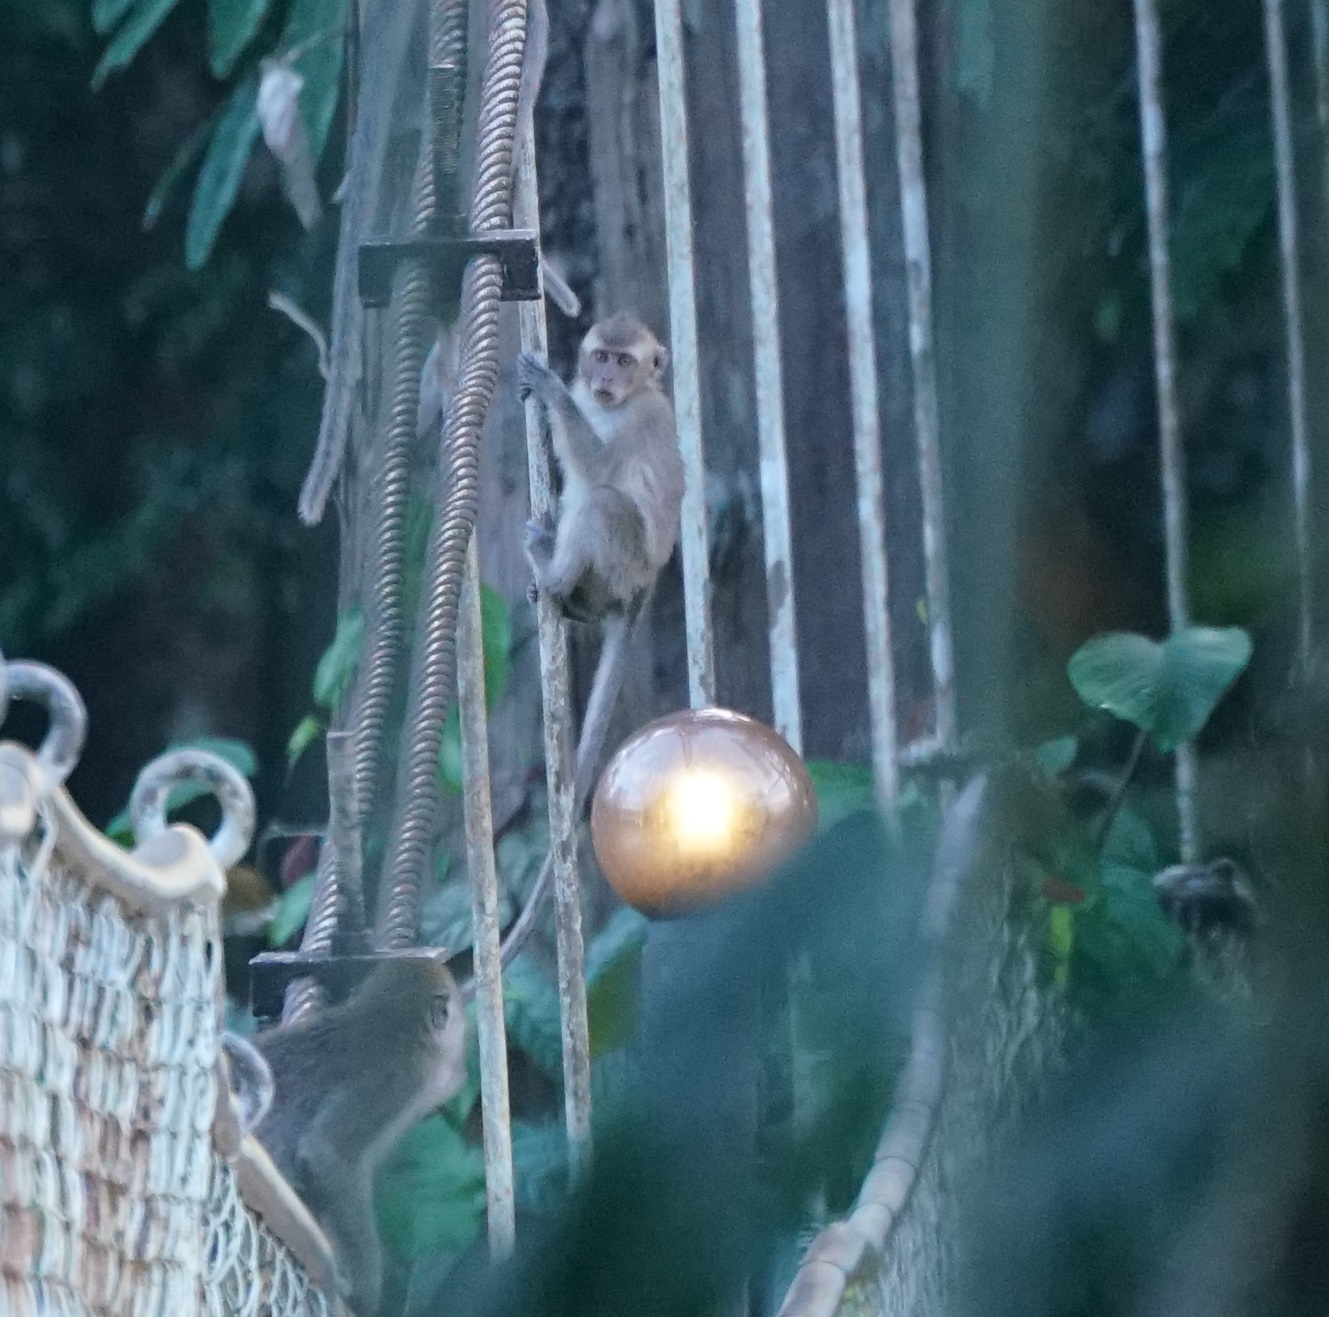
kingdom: Animalia
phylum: Chordata
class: Mammalia
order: Primates
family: Cercopithecidae
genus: Macaca
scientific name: Macaca fascicularis
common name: Crab-eating macaque
